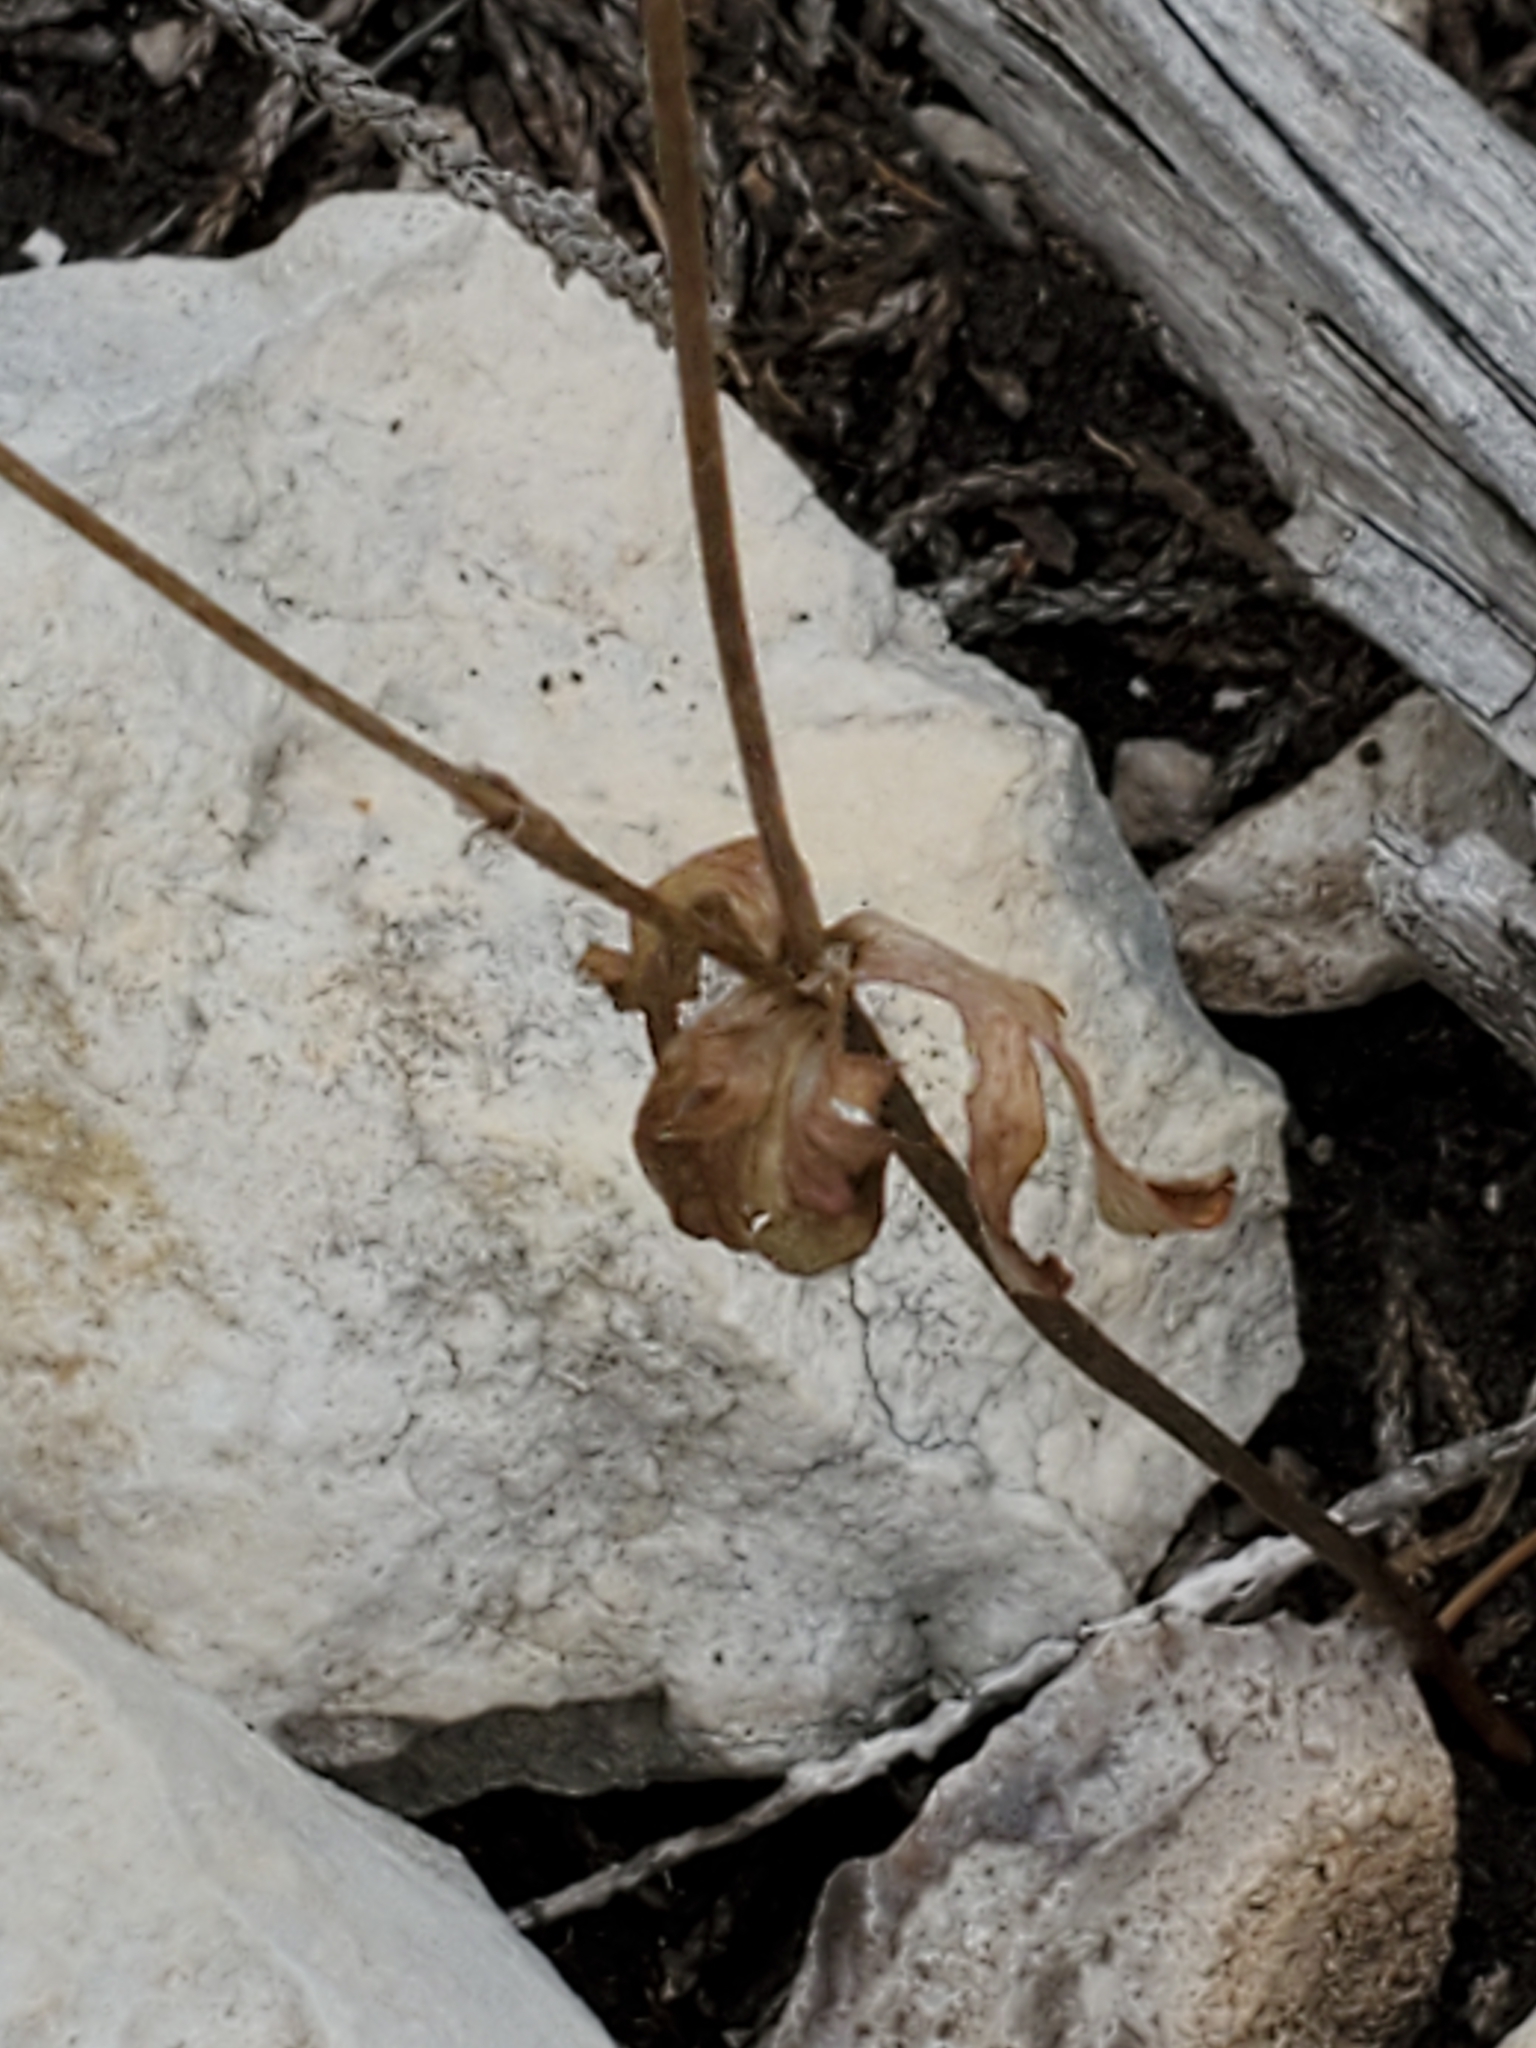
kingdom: Plantae
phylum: Tracheophyta
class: Magnoliopsida
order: Ranunculales
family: Ranunculaceae
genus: Anemone
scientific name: Anemone edwardsiana
